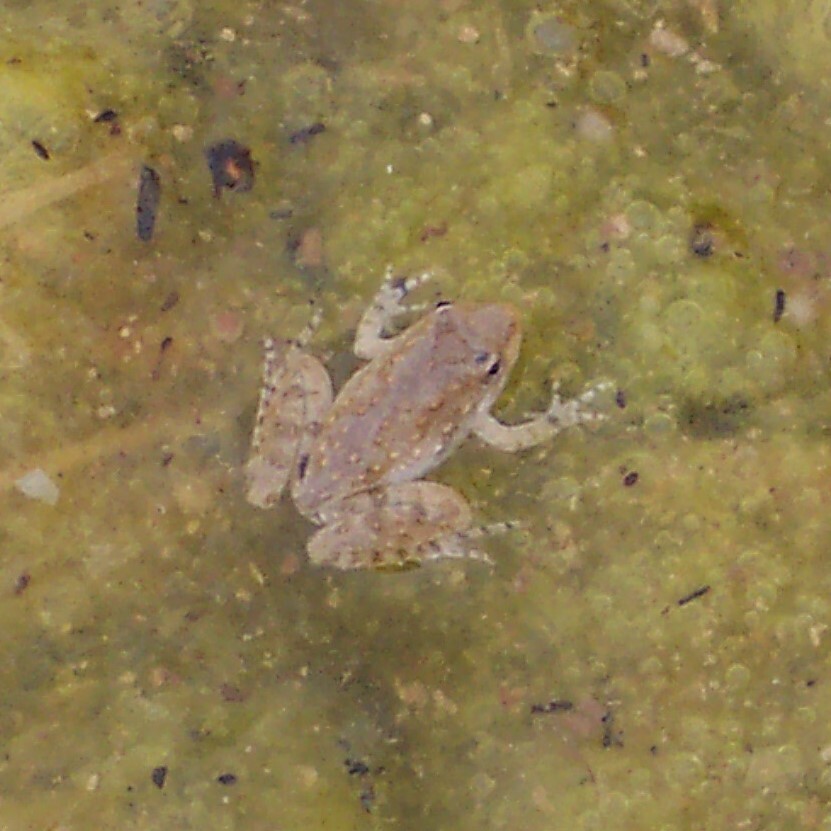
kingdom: Animalia
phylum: Chordata
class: Amphibia
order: Anura
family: Hylidae
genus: Acris
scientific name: Acris blanchardi
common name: Blanchard's cricket frog
